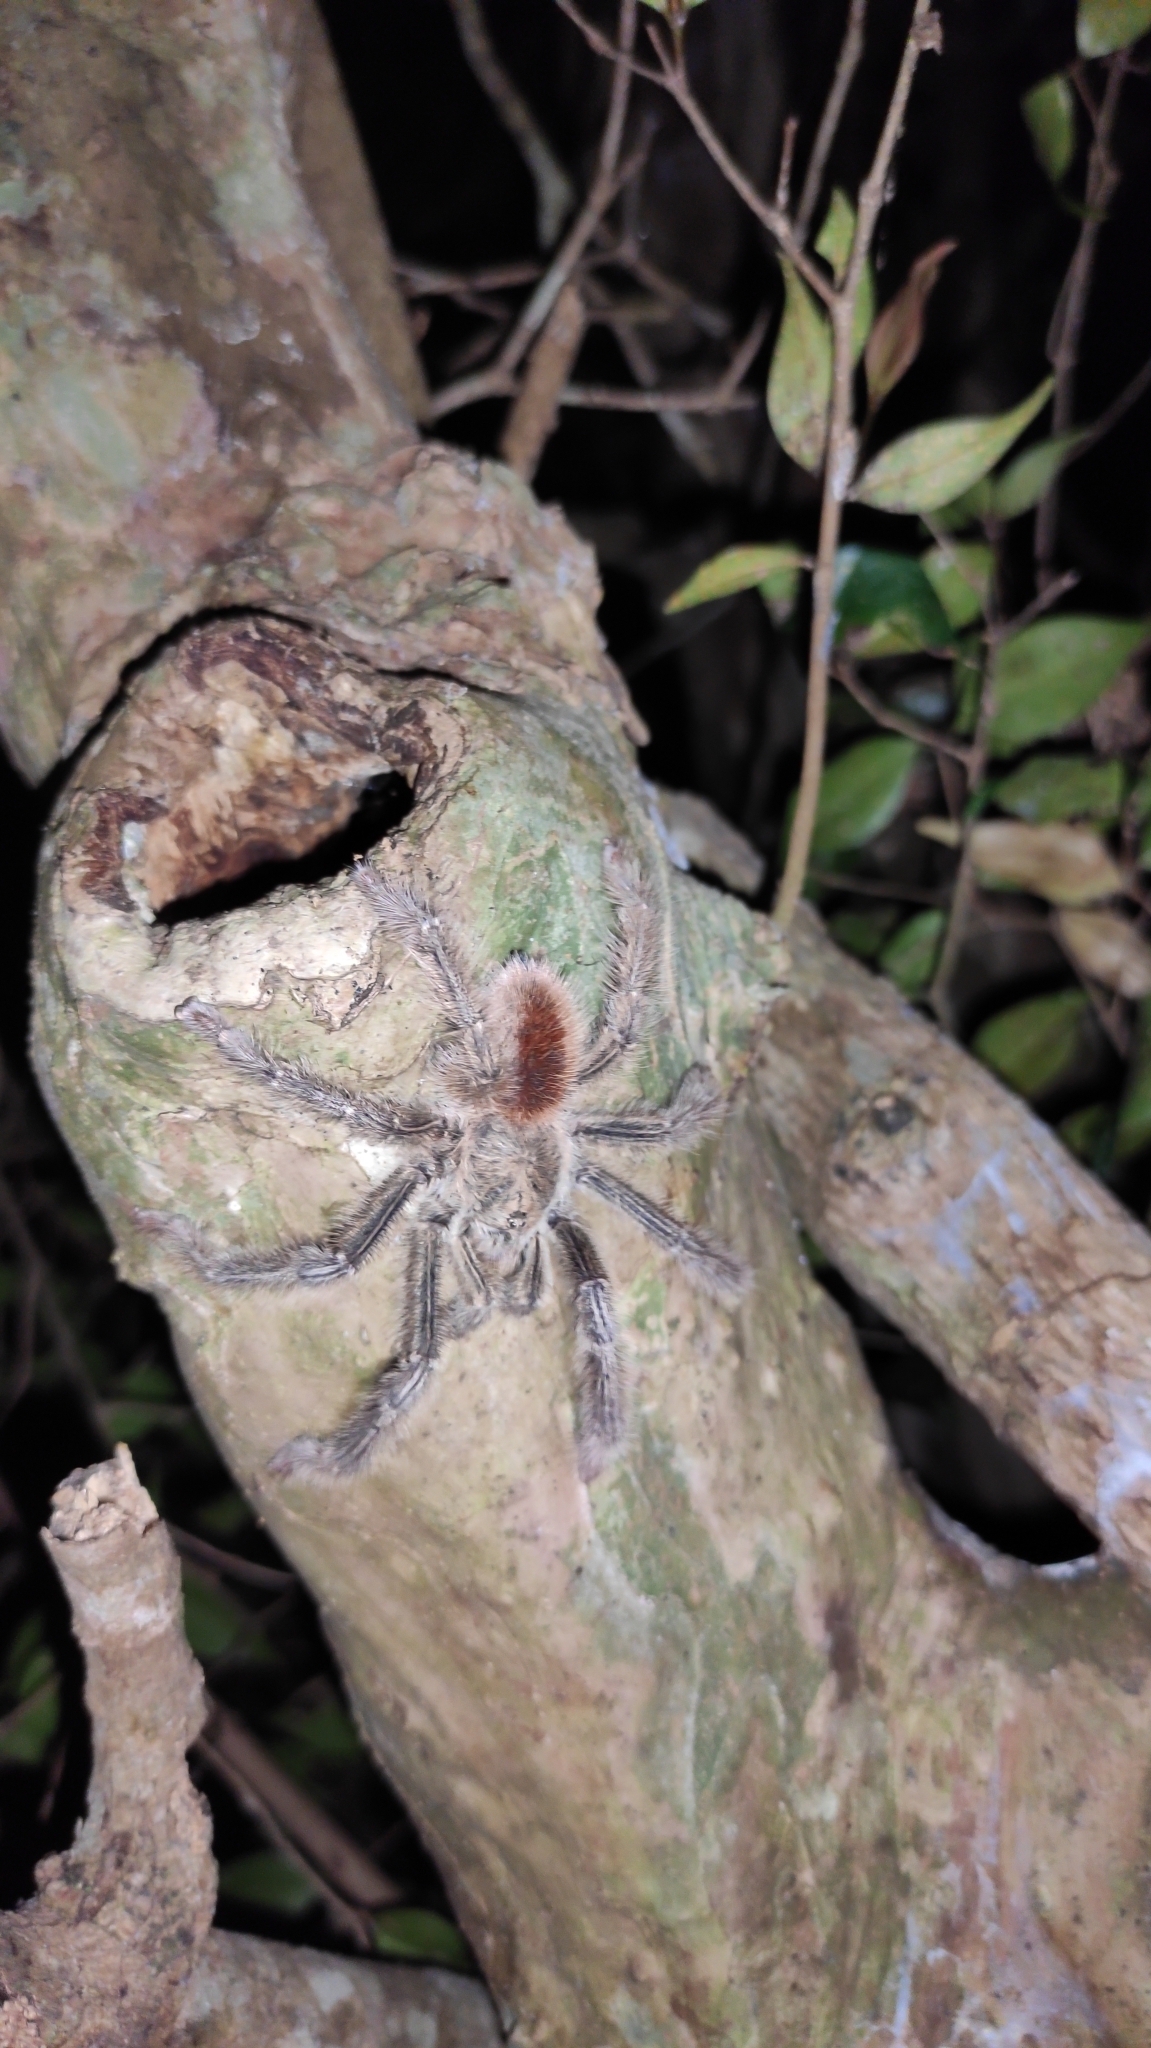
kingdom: Animalia
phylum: Arthropoda
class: Arachnida
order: Araneae
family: Theraphosidae
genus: Iridopelma
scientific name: Iridopelma hirsutum
